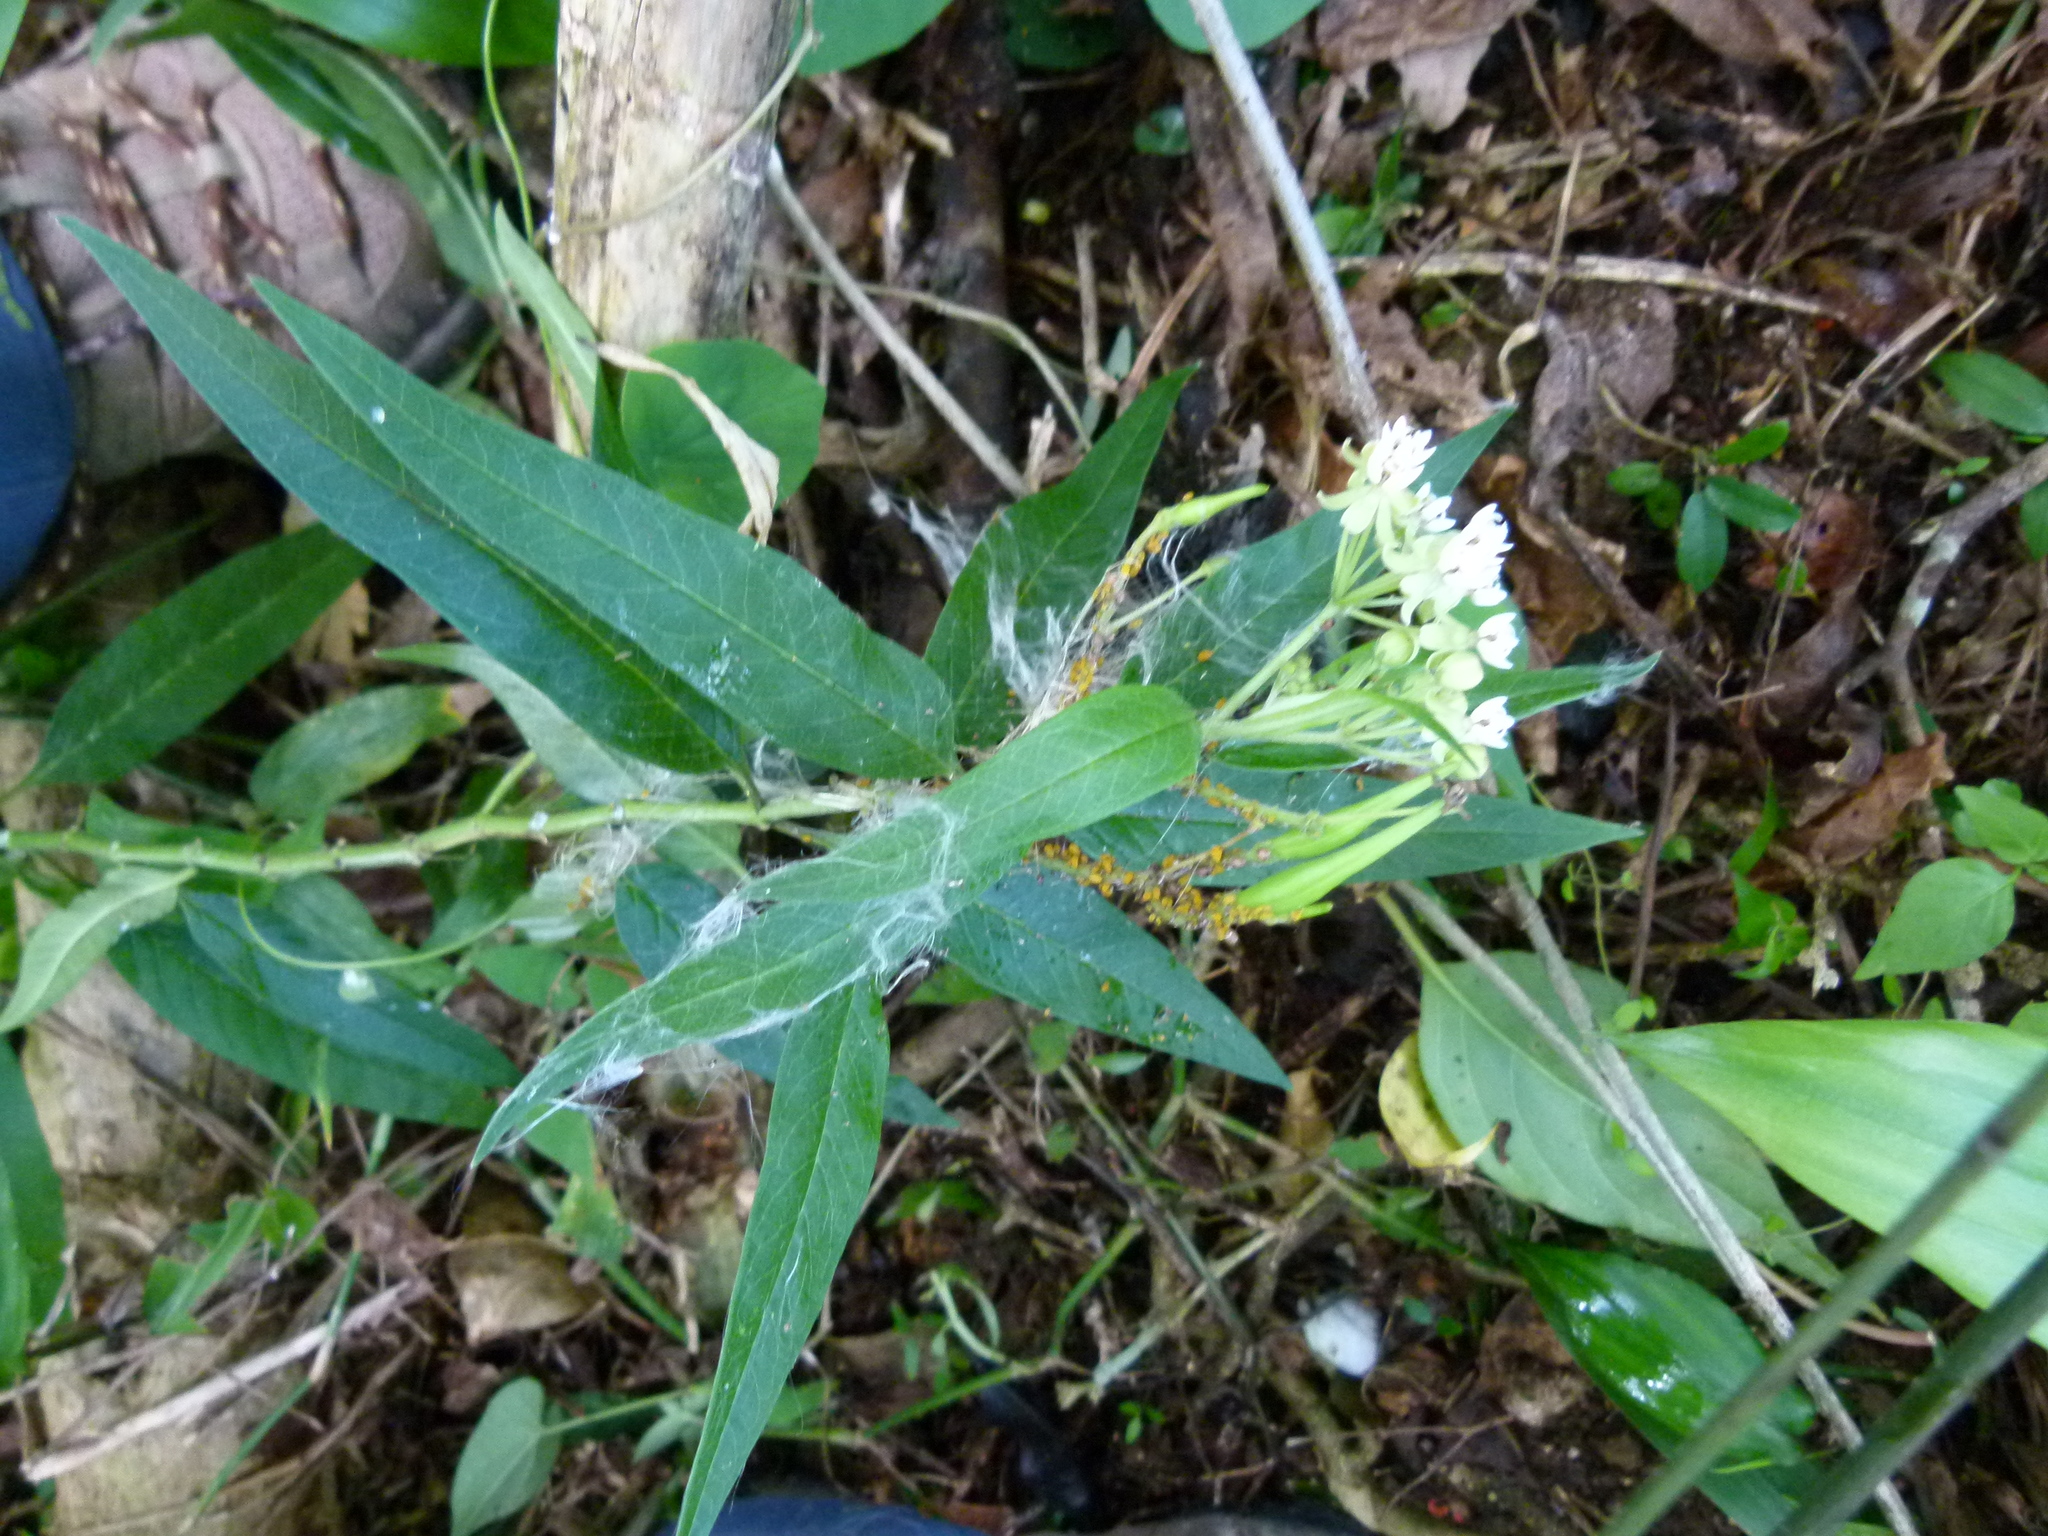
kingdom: Plantae
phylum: Tracheophyta
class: Magnoliopsida
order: Gentianales
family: Apocynaceae
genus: Asclepias
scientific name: Asclepias nivea
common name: Ipecacuanha
